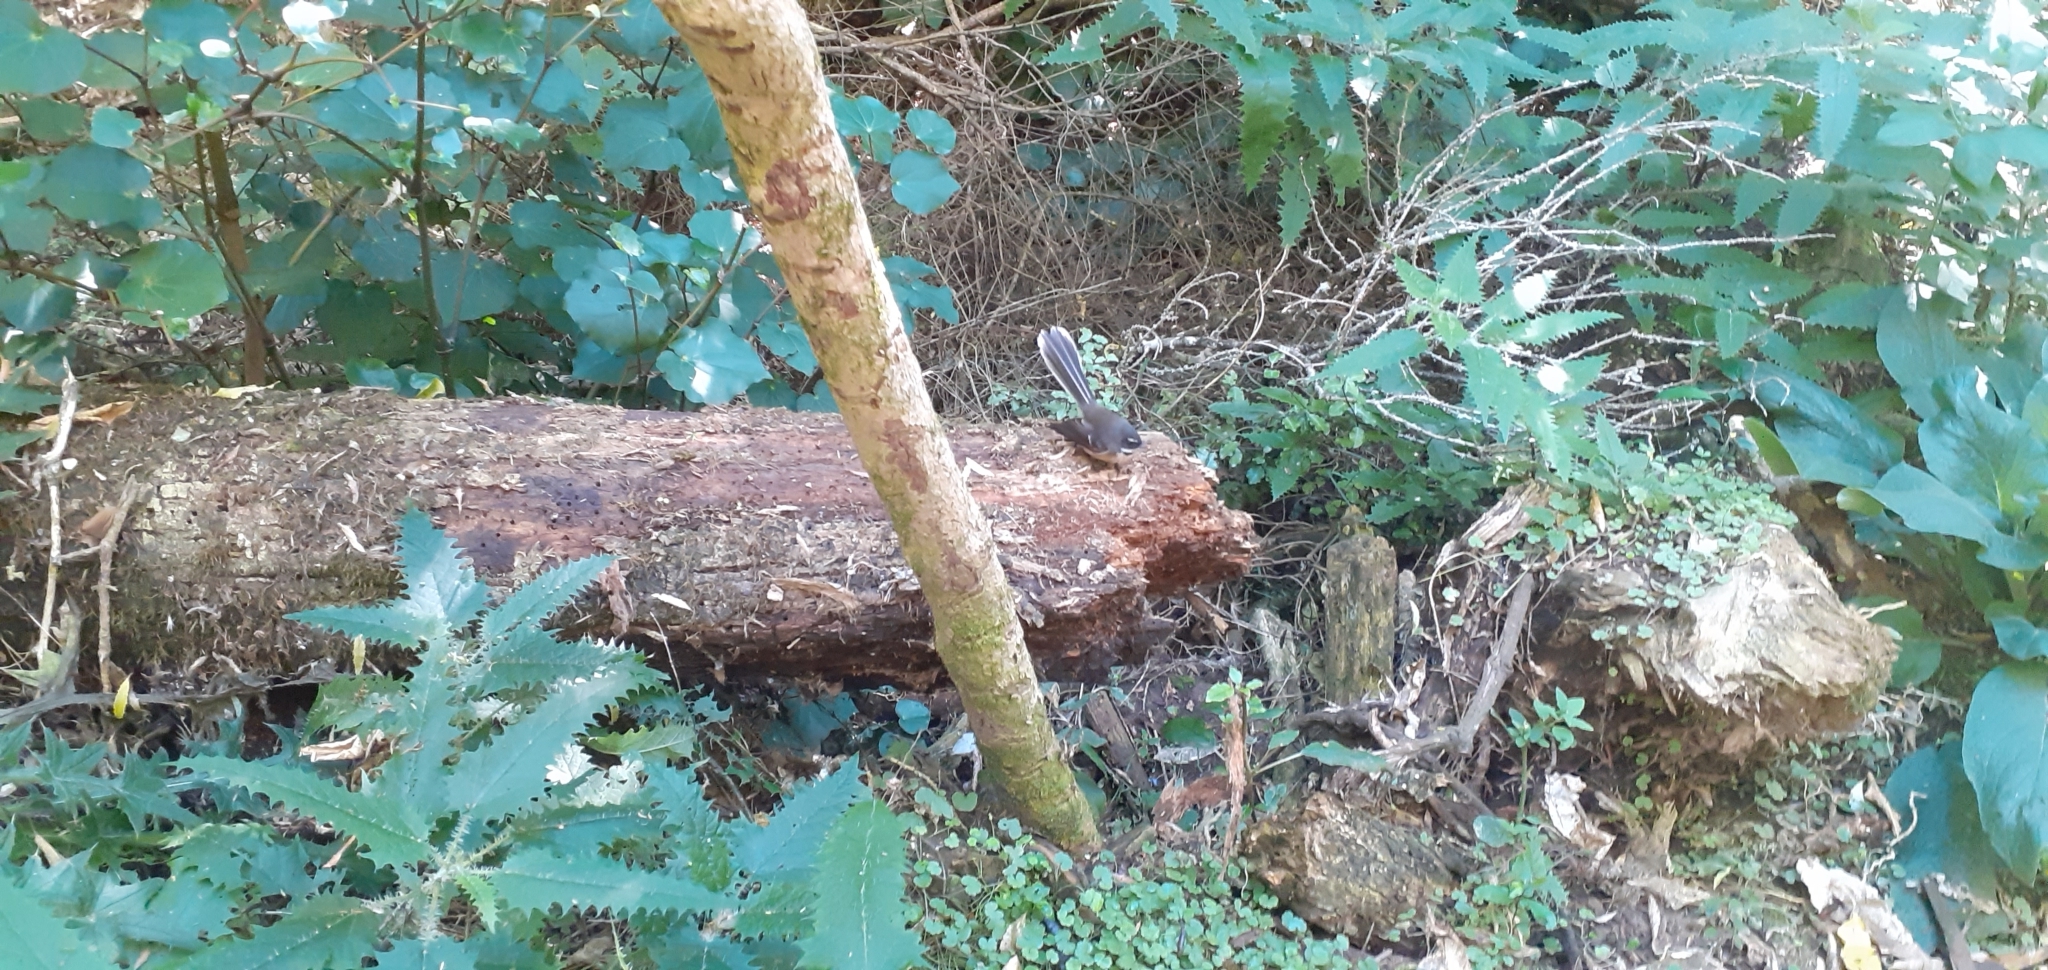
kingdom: Animalia
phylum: Chordata
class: Aves
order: Passeriformes
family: Rhipiduridae
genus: Rhipidura
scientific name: Rhipidura fuliginosa
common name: New zealand fantail
